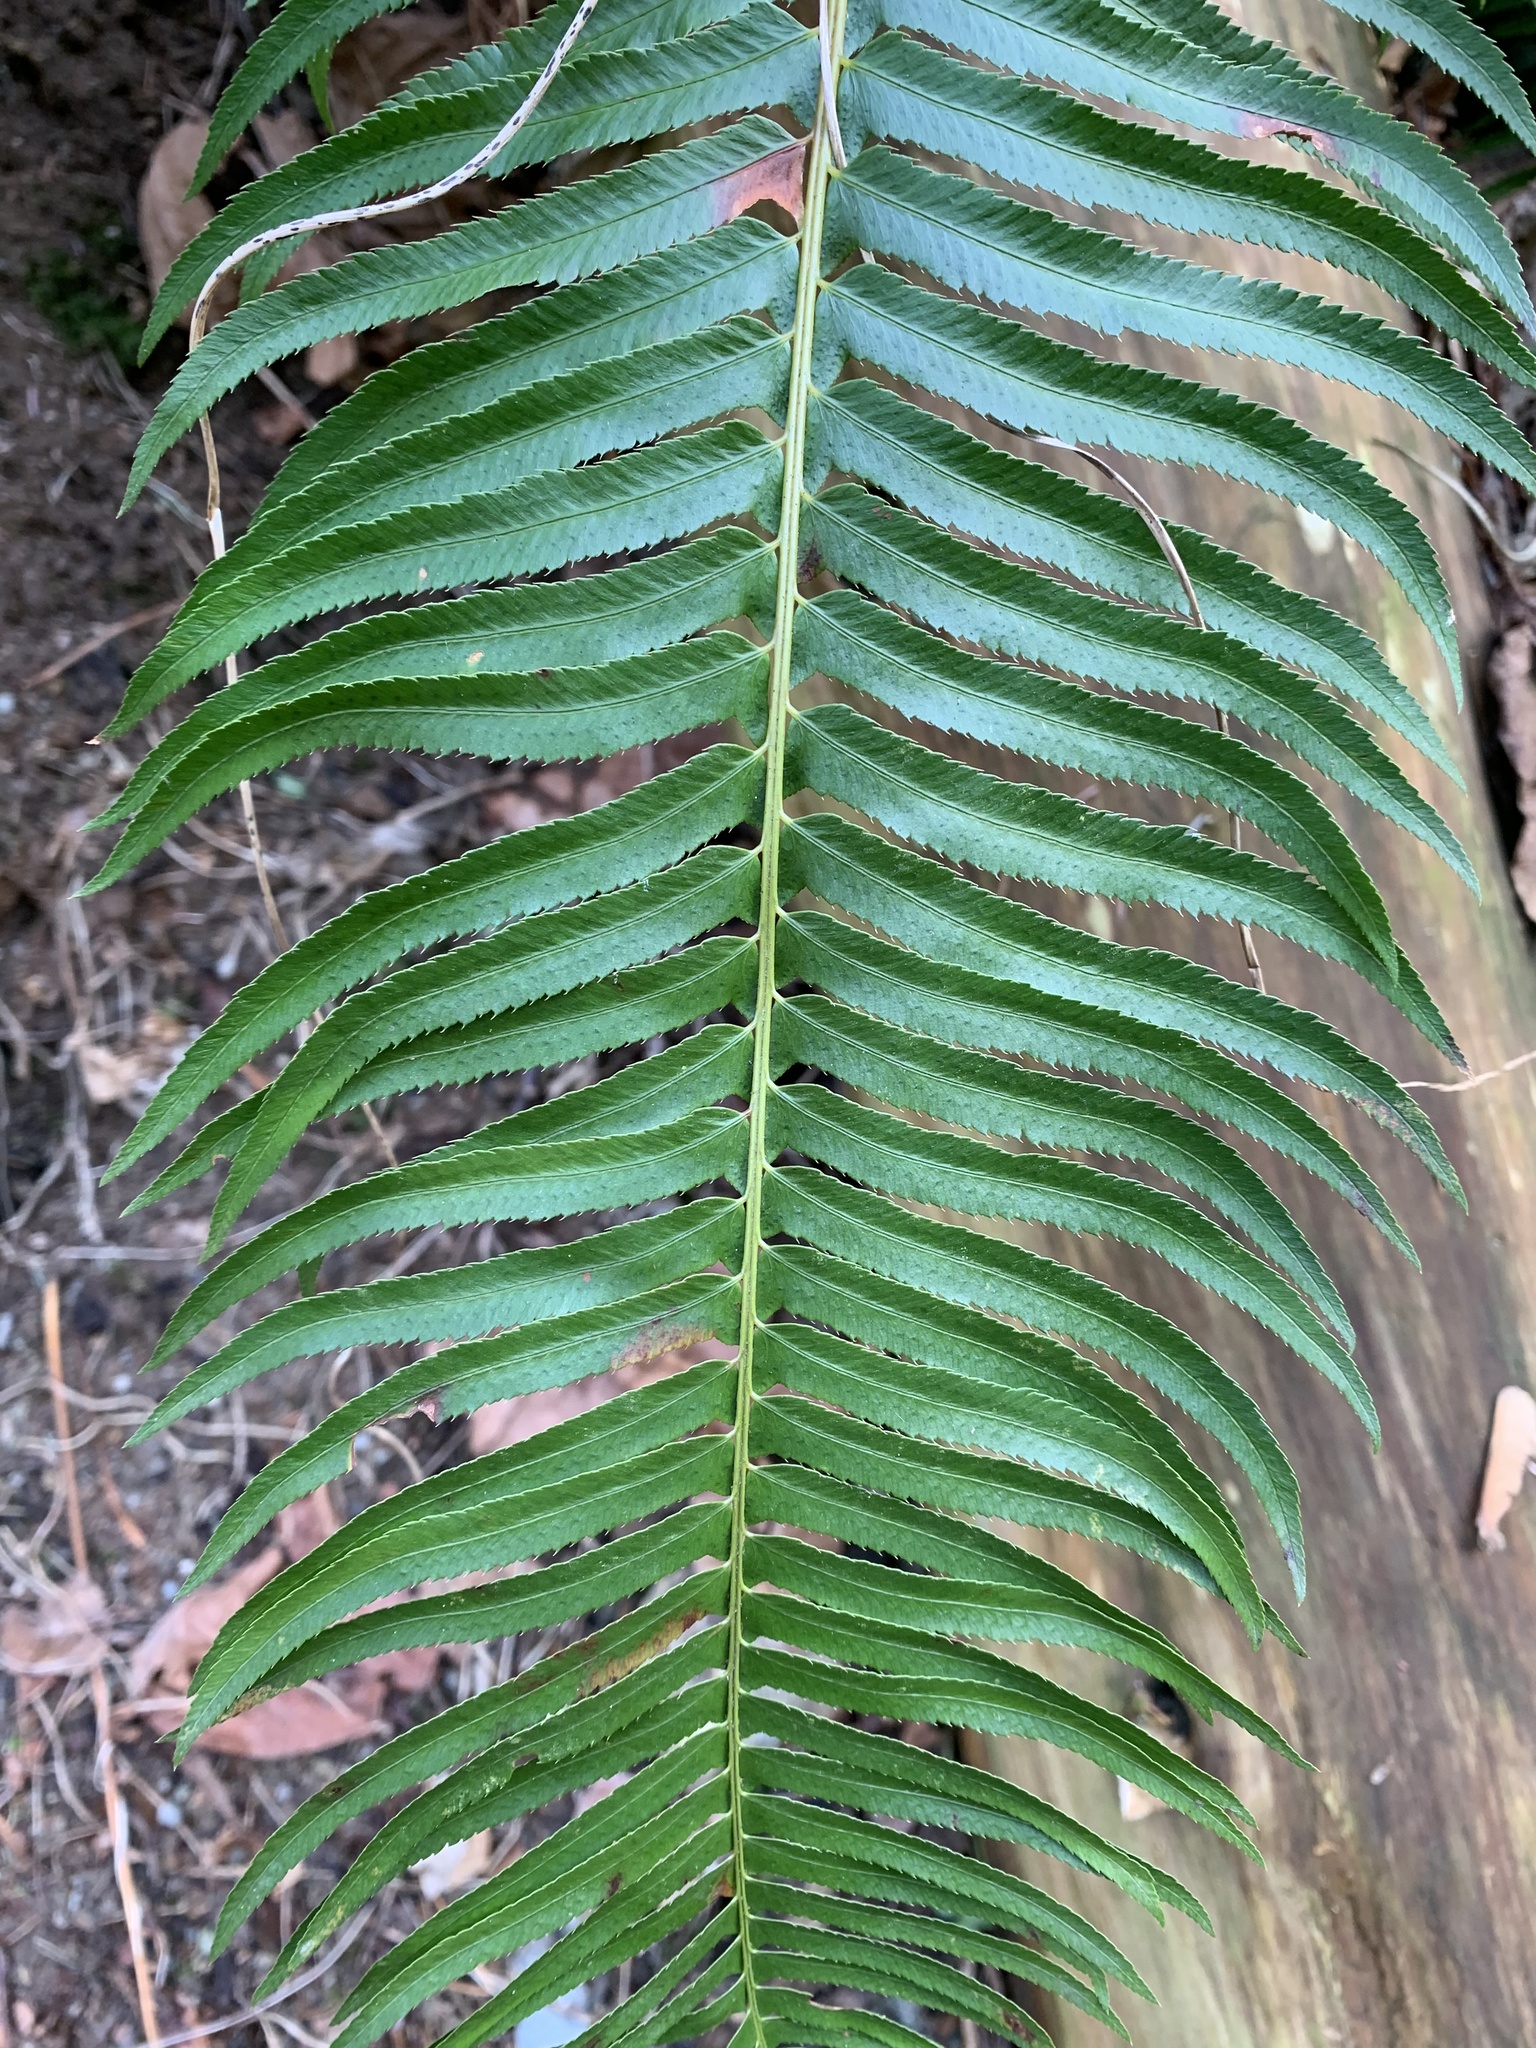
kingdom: Plantae
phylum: Tracheophyta
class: Polypodiopsida
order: Polypodiales
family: Dryopteridaceae
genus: Polystichum
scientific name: Polystichum munitum
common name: Western sword-fern
